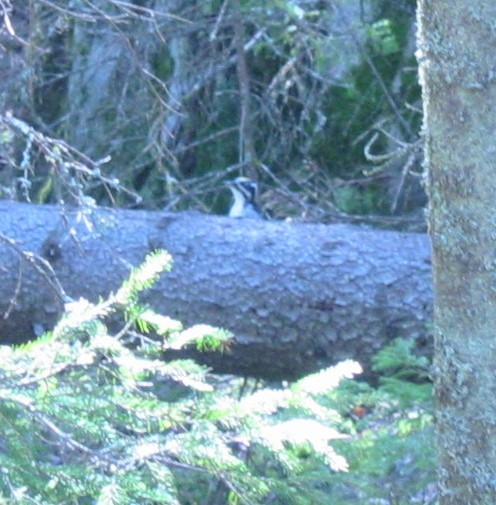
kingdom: Animalia
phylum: Chordata
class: Aves
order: Piciformes
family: Picidae
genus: Picoides
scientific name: Picoides tridactylus
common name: Eurasian three-toed woodpecker
